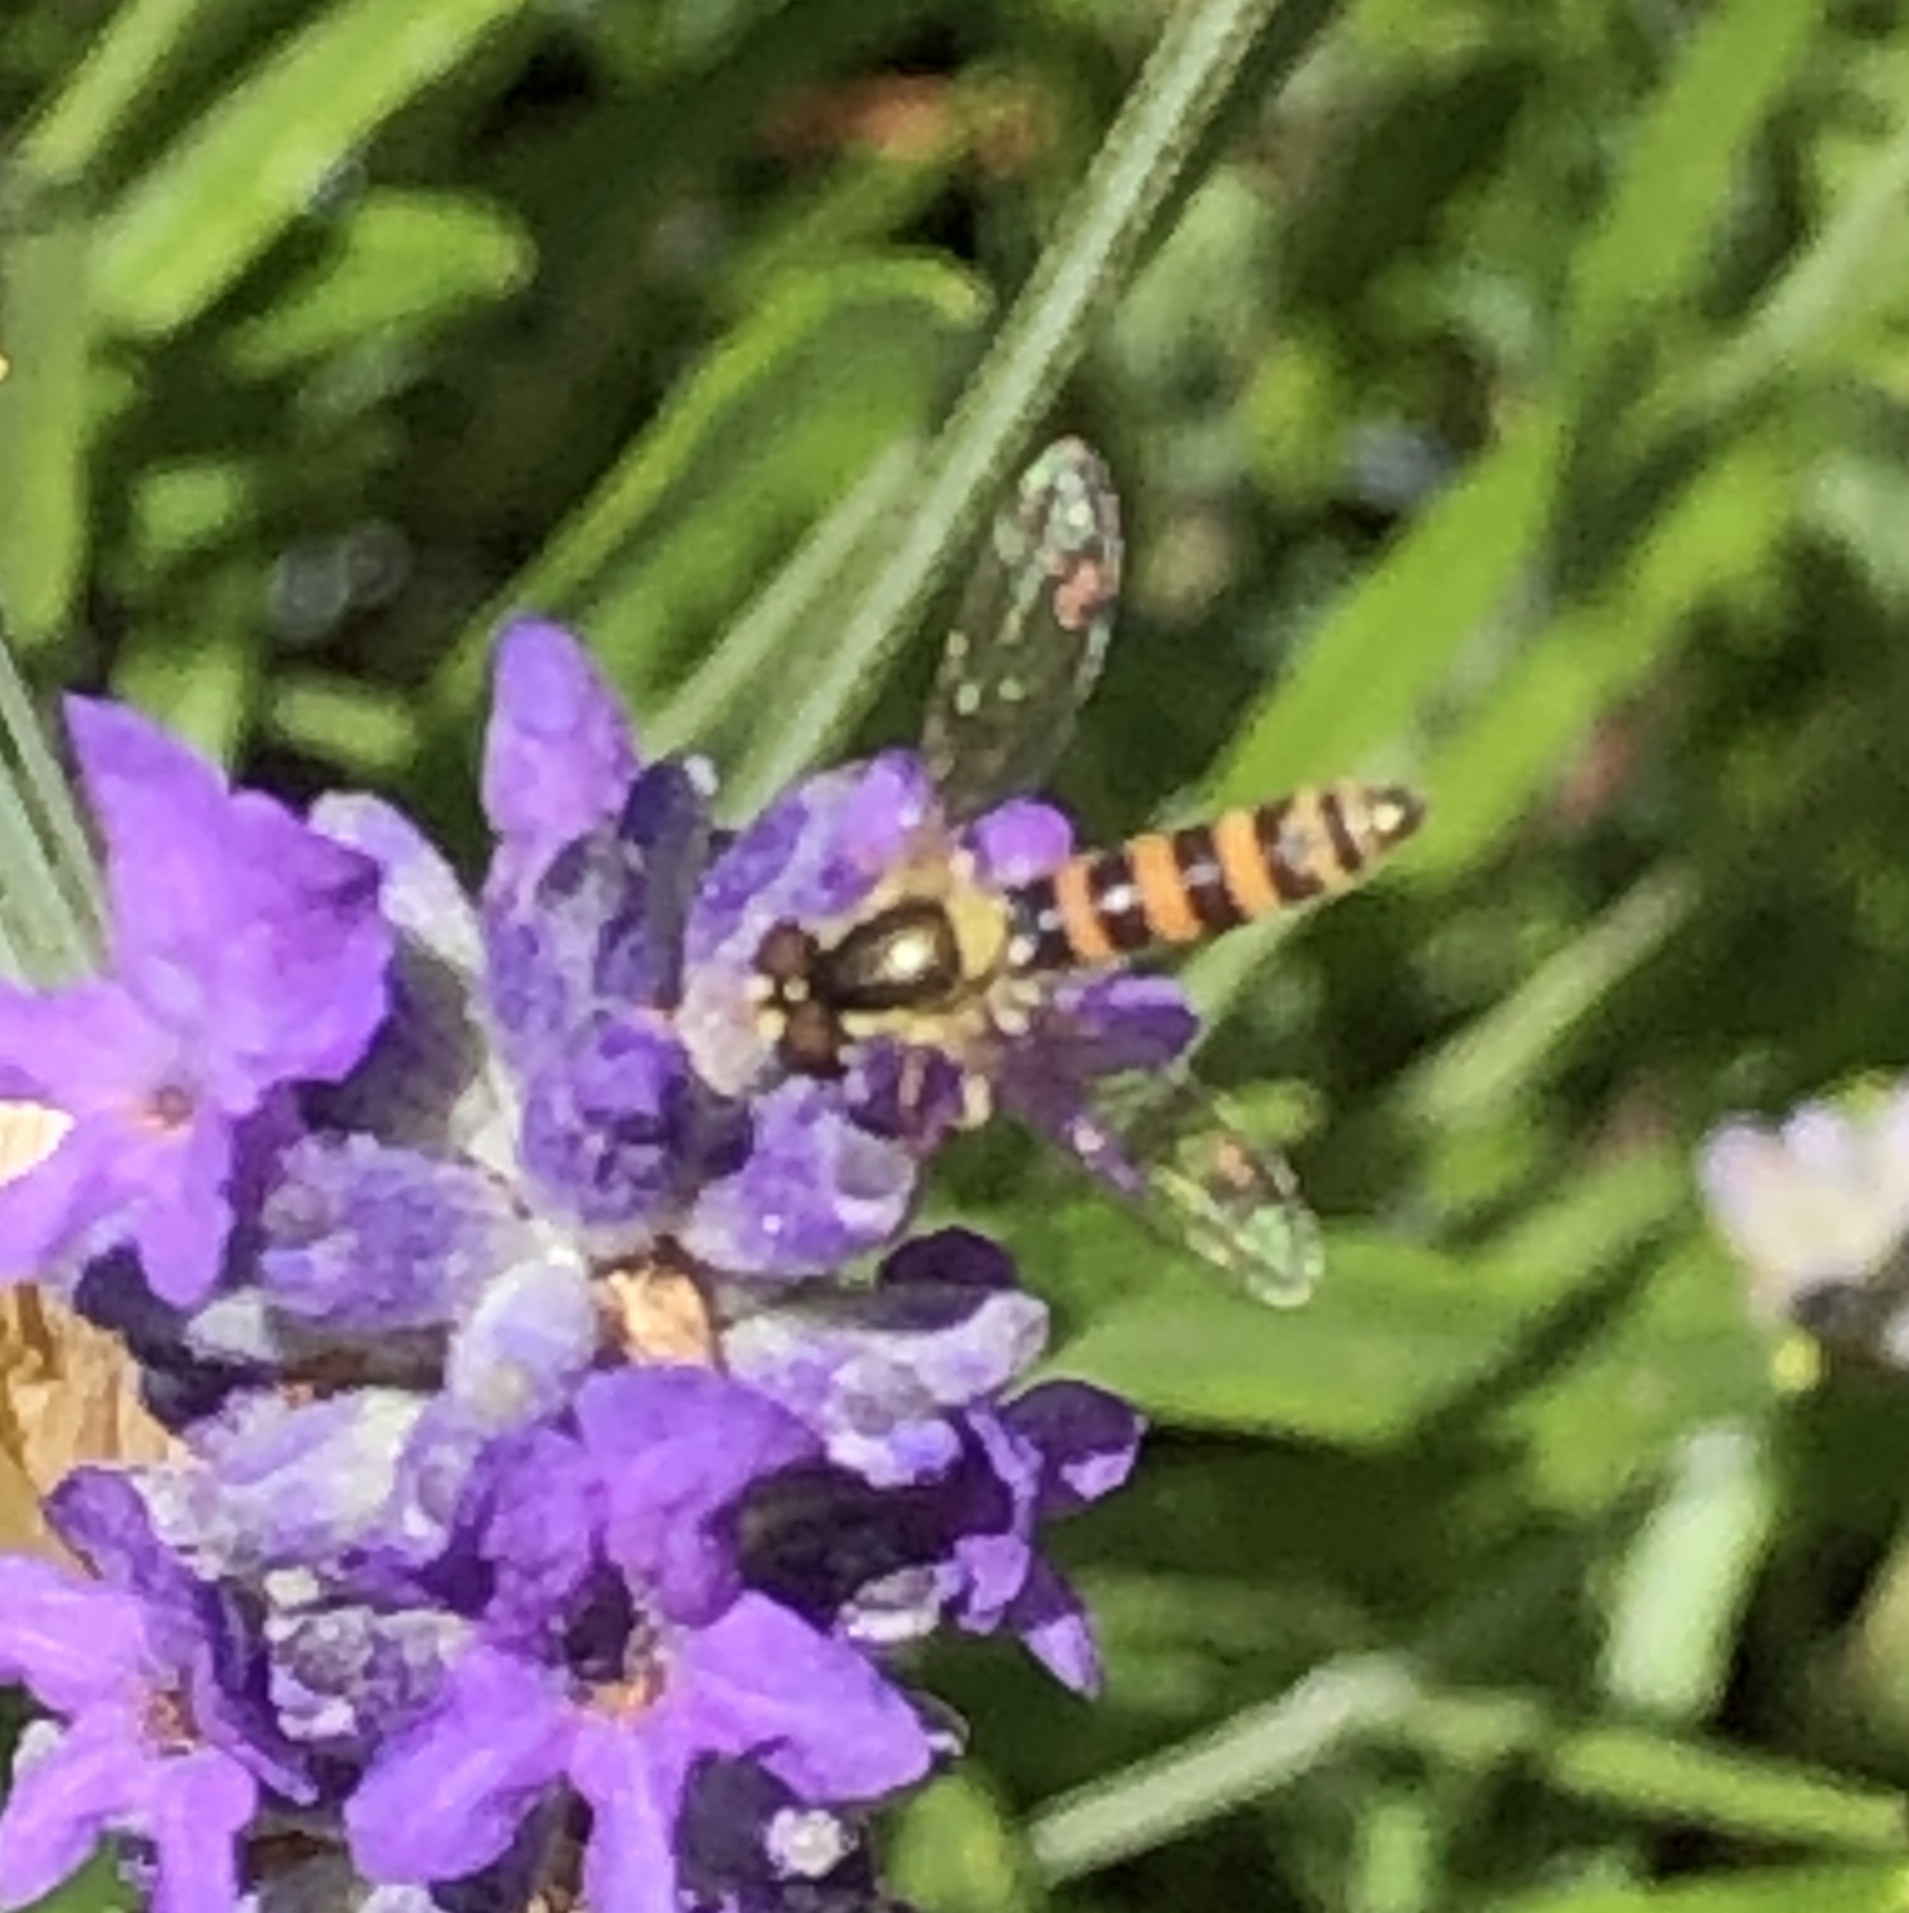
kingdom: Animalia
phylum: Arthropoda
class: Insecta
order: Diptera
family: Syrphidae
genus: Sphaerophoria
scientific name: Sphaerophoria
